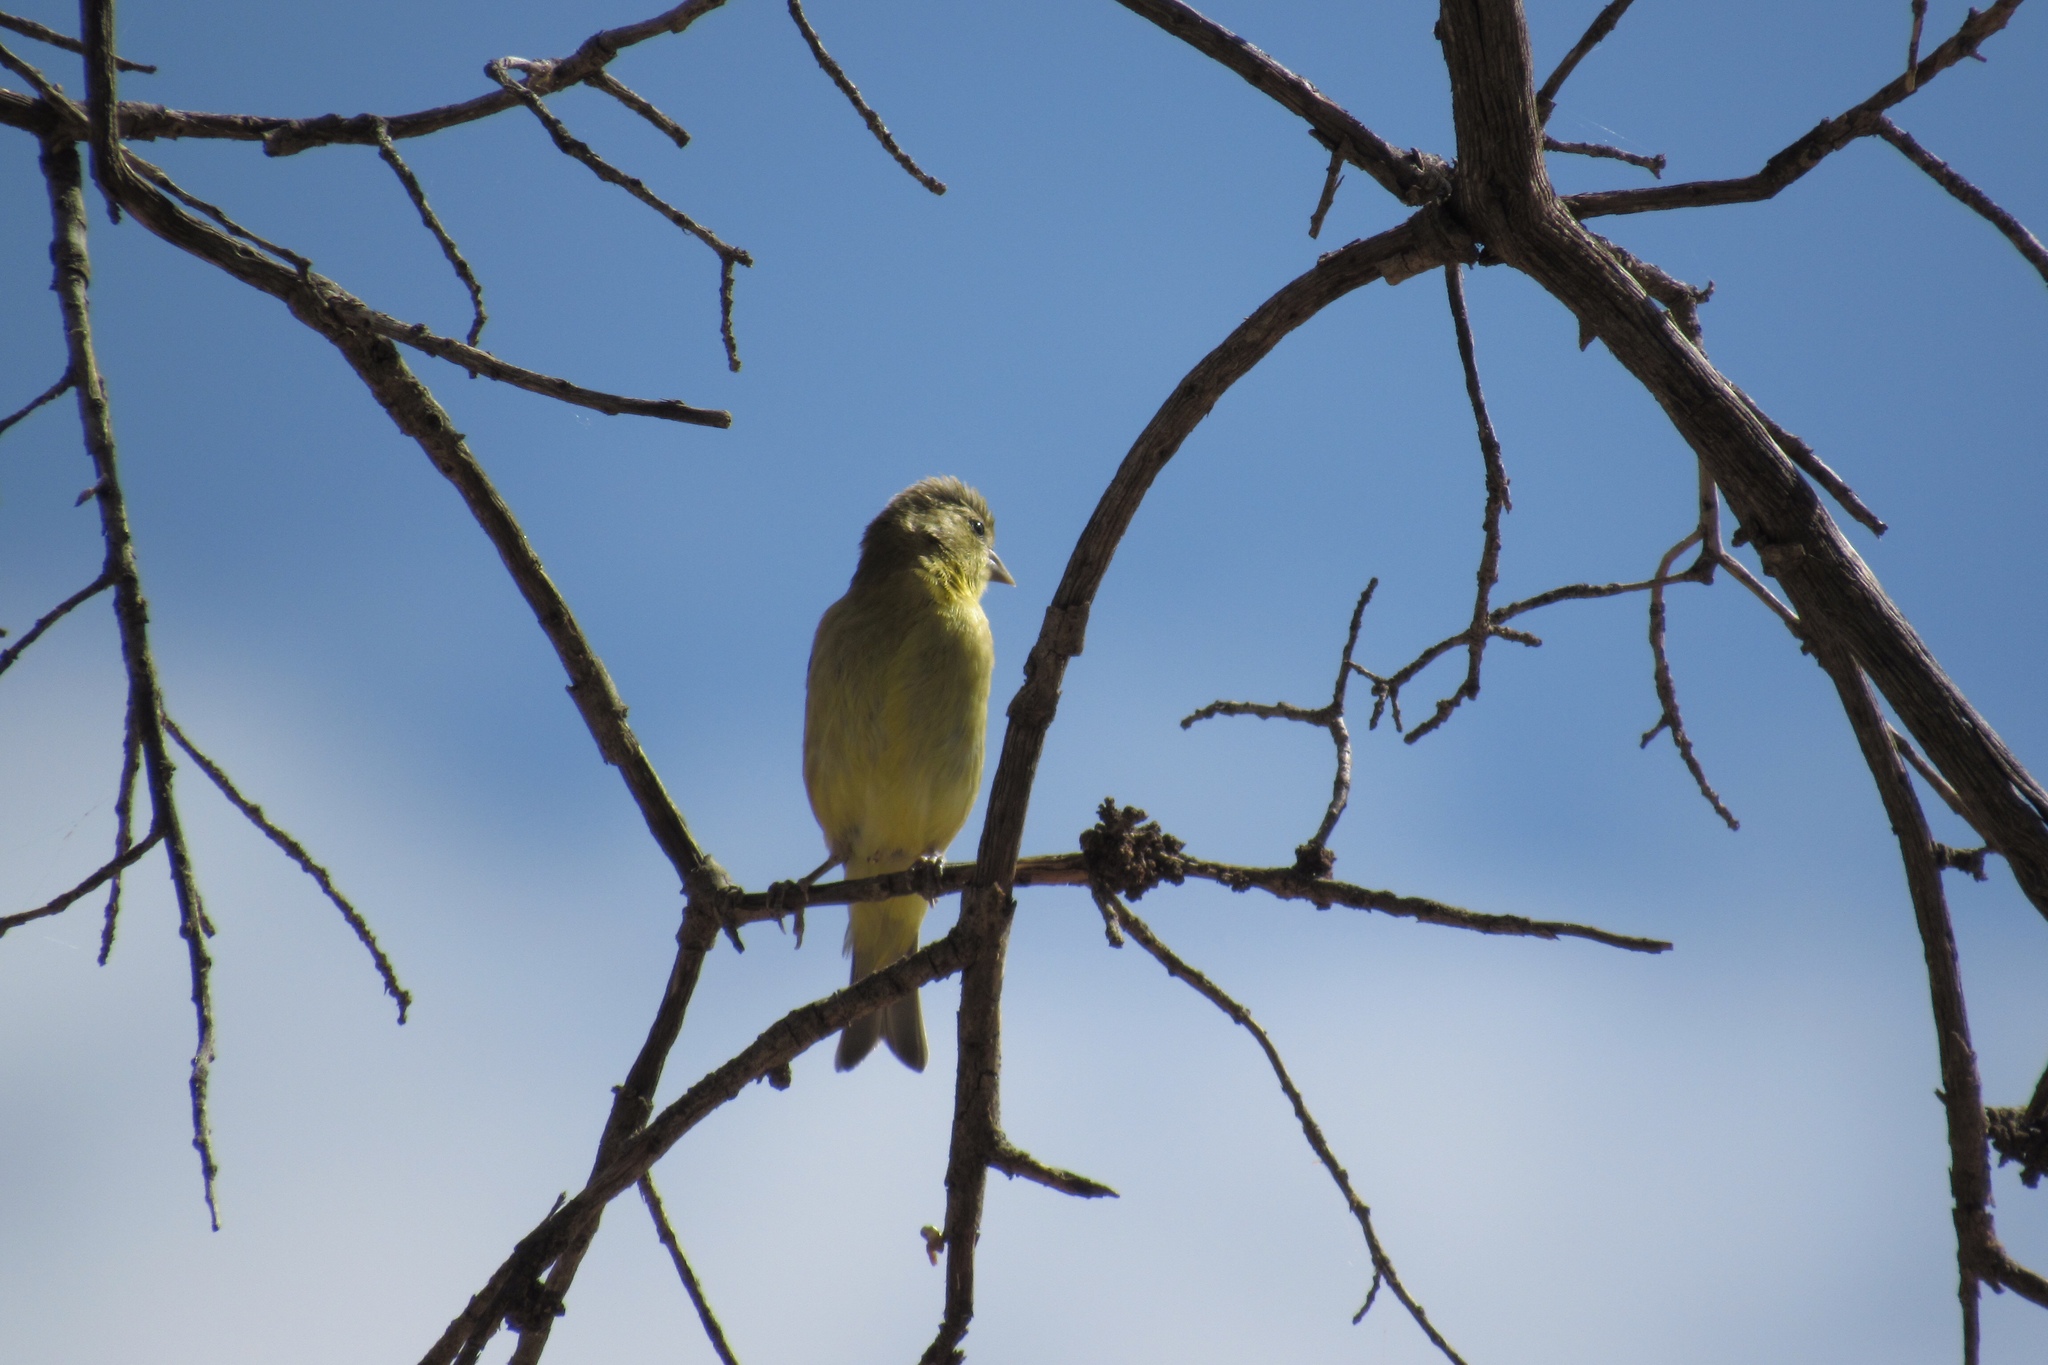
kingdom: Animalia
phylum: Chordata
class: Aves
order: Passeriformes
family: Fringillidae
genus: Spinus
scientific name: Spinus psaltria
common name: Lesser goldfinch
